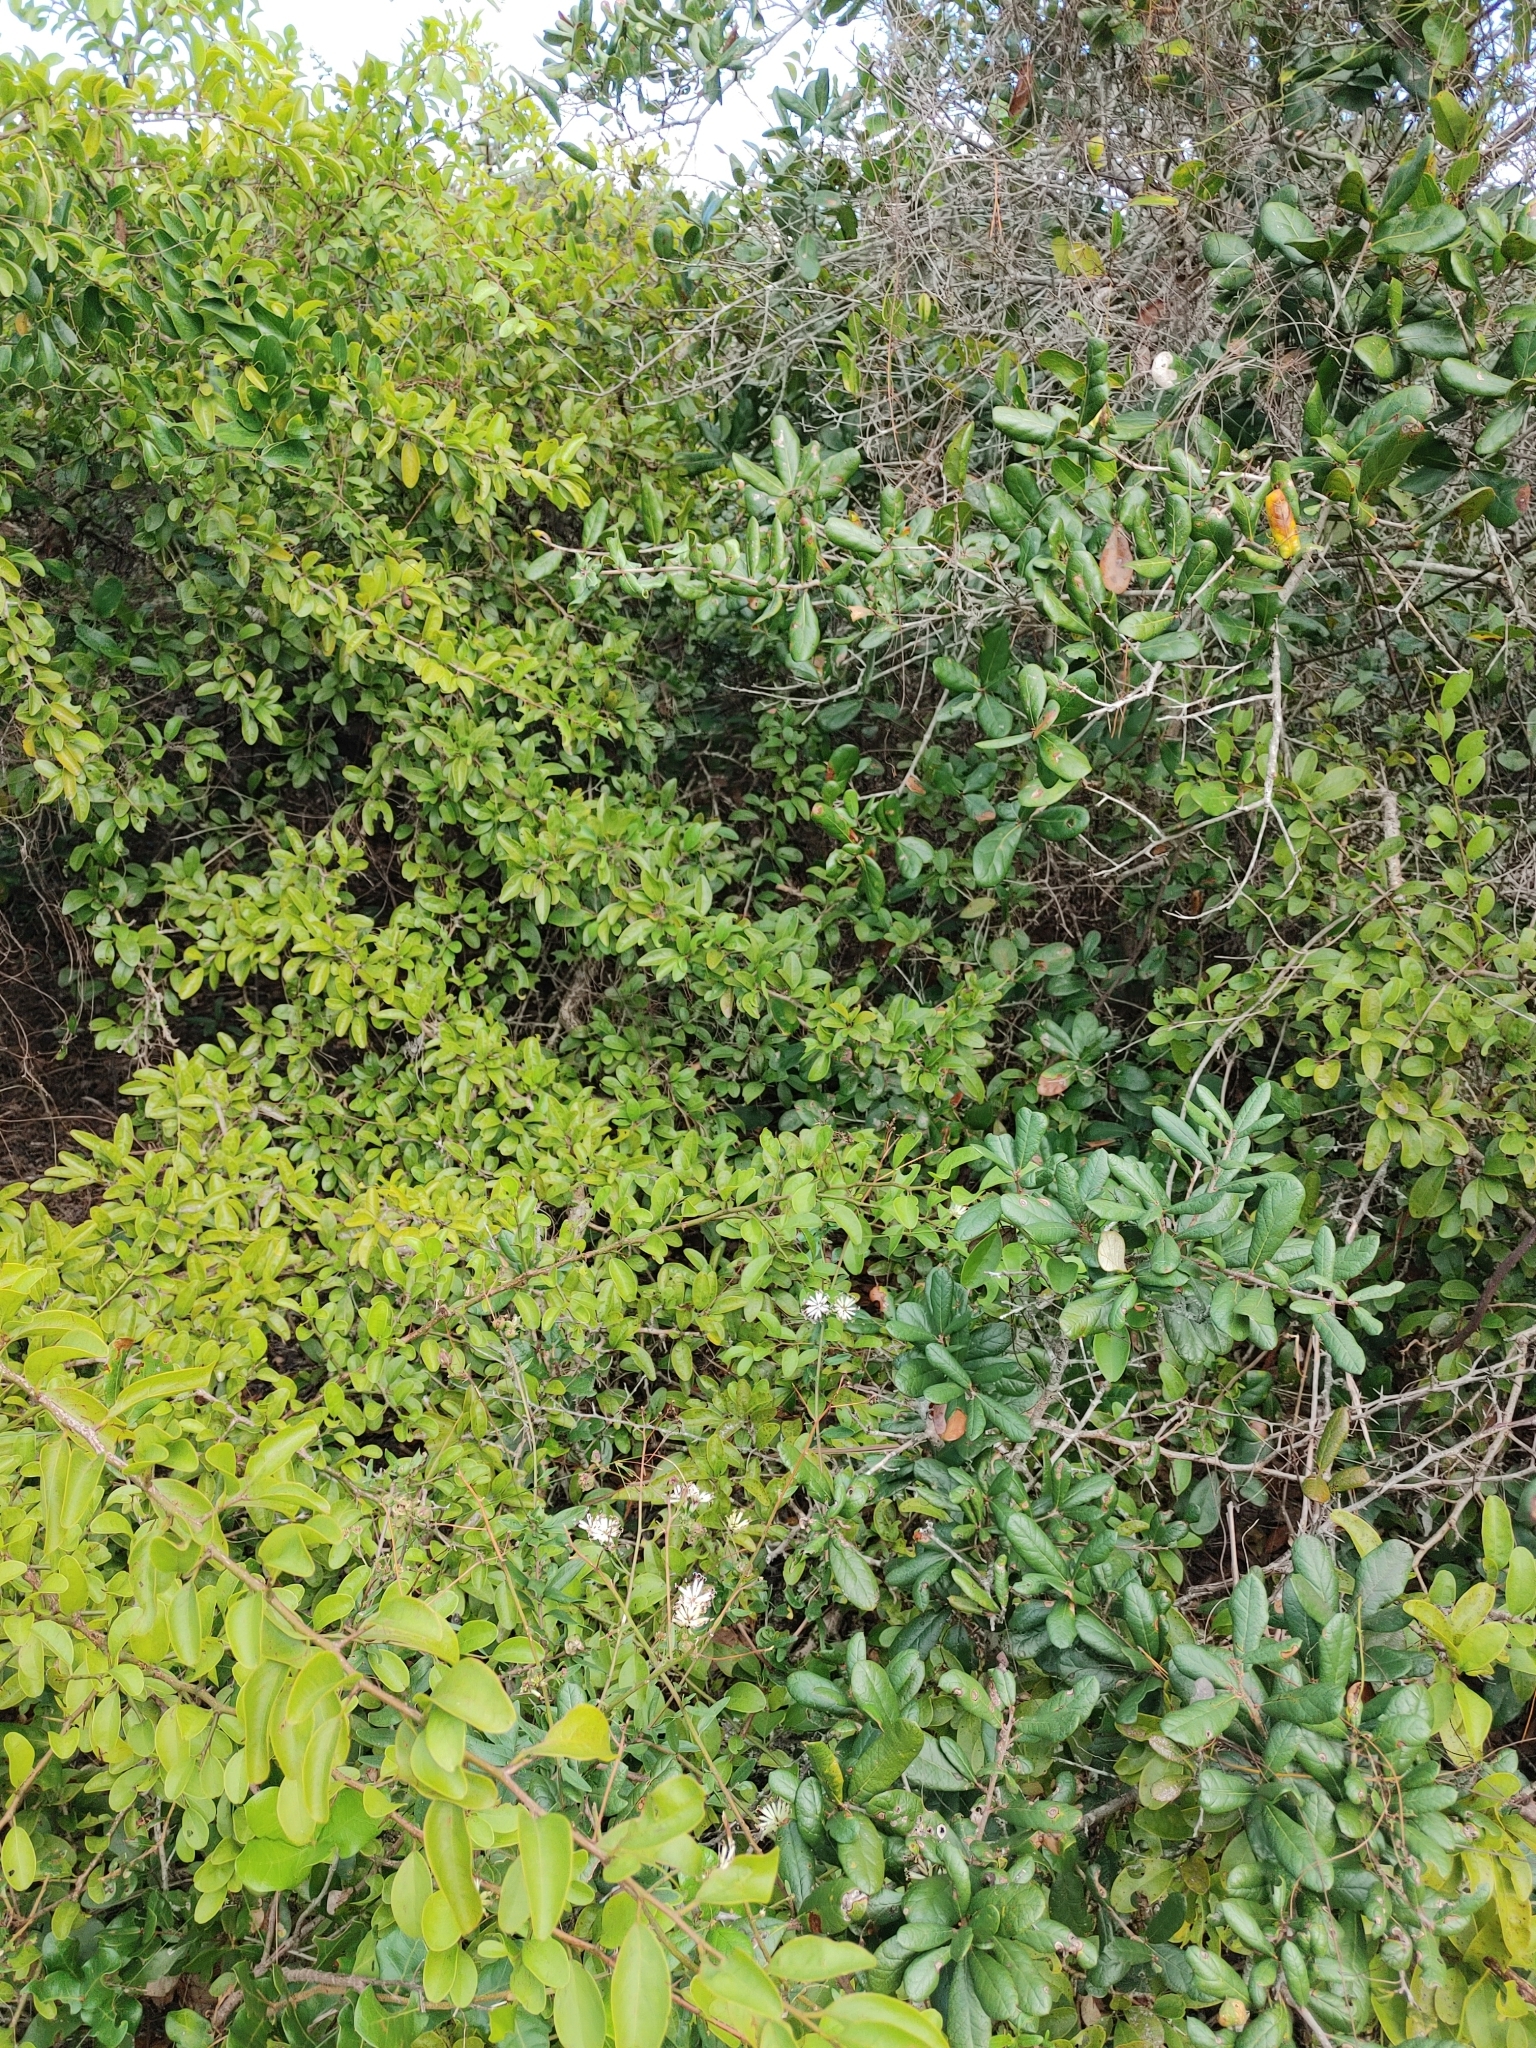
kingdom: Plantae
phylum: Tracheophyta
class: Magnoliopsida
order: Asterales
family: Asteraceae
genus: Palafoxia
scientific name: Palafoxia feayi
